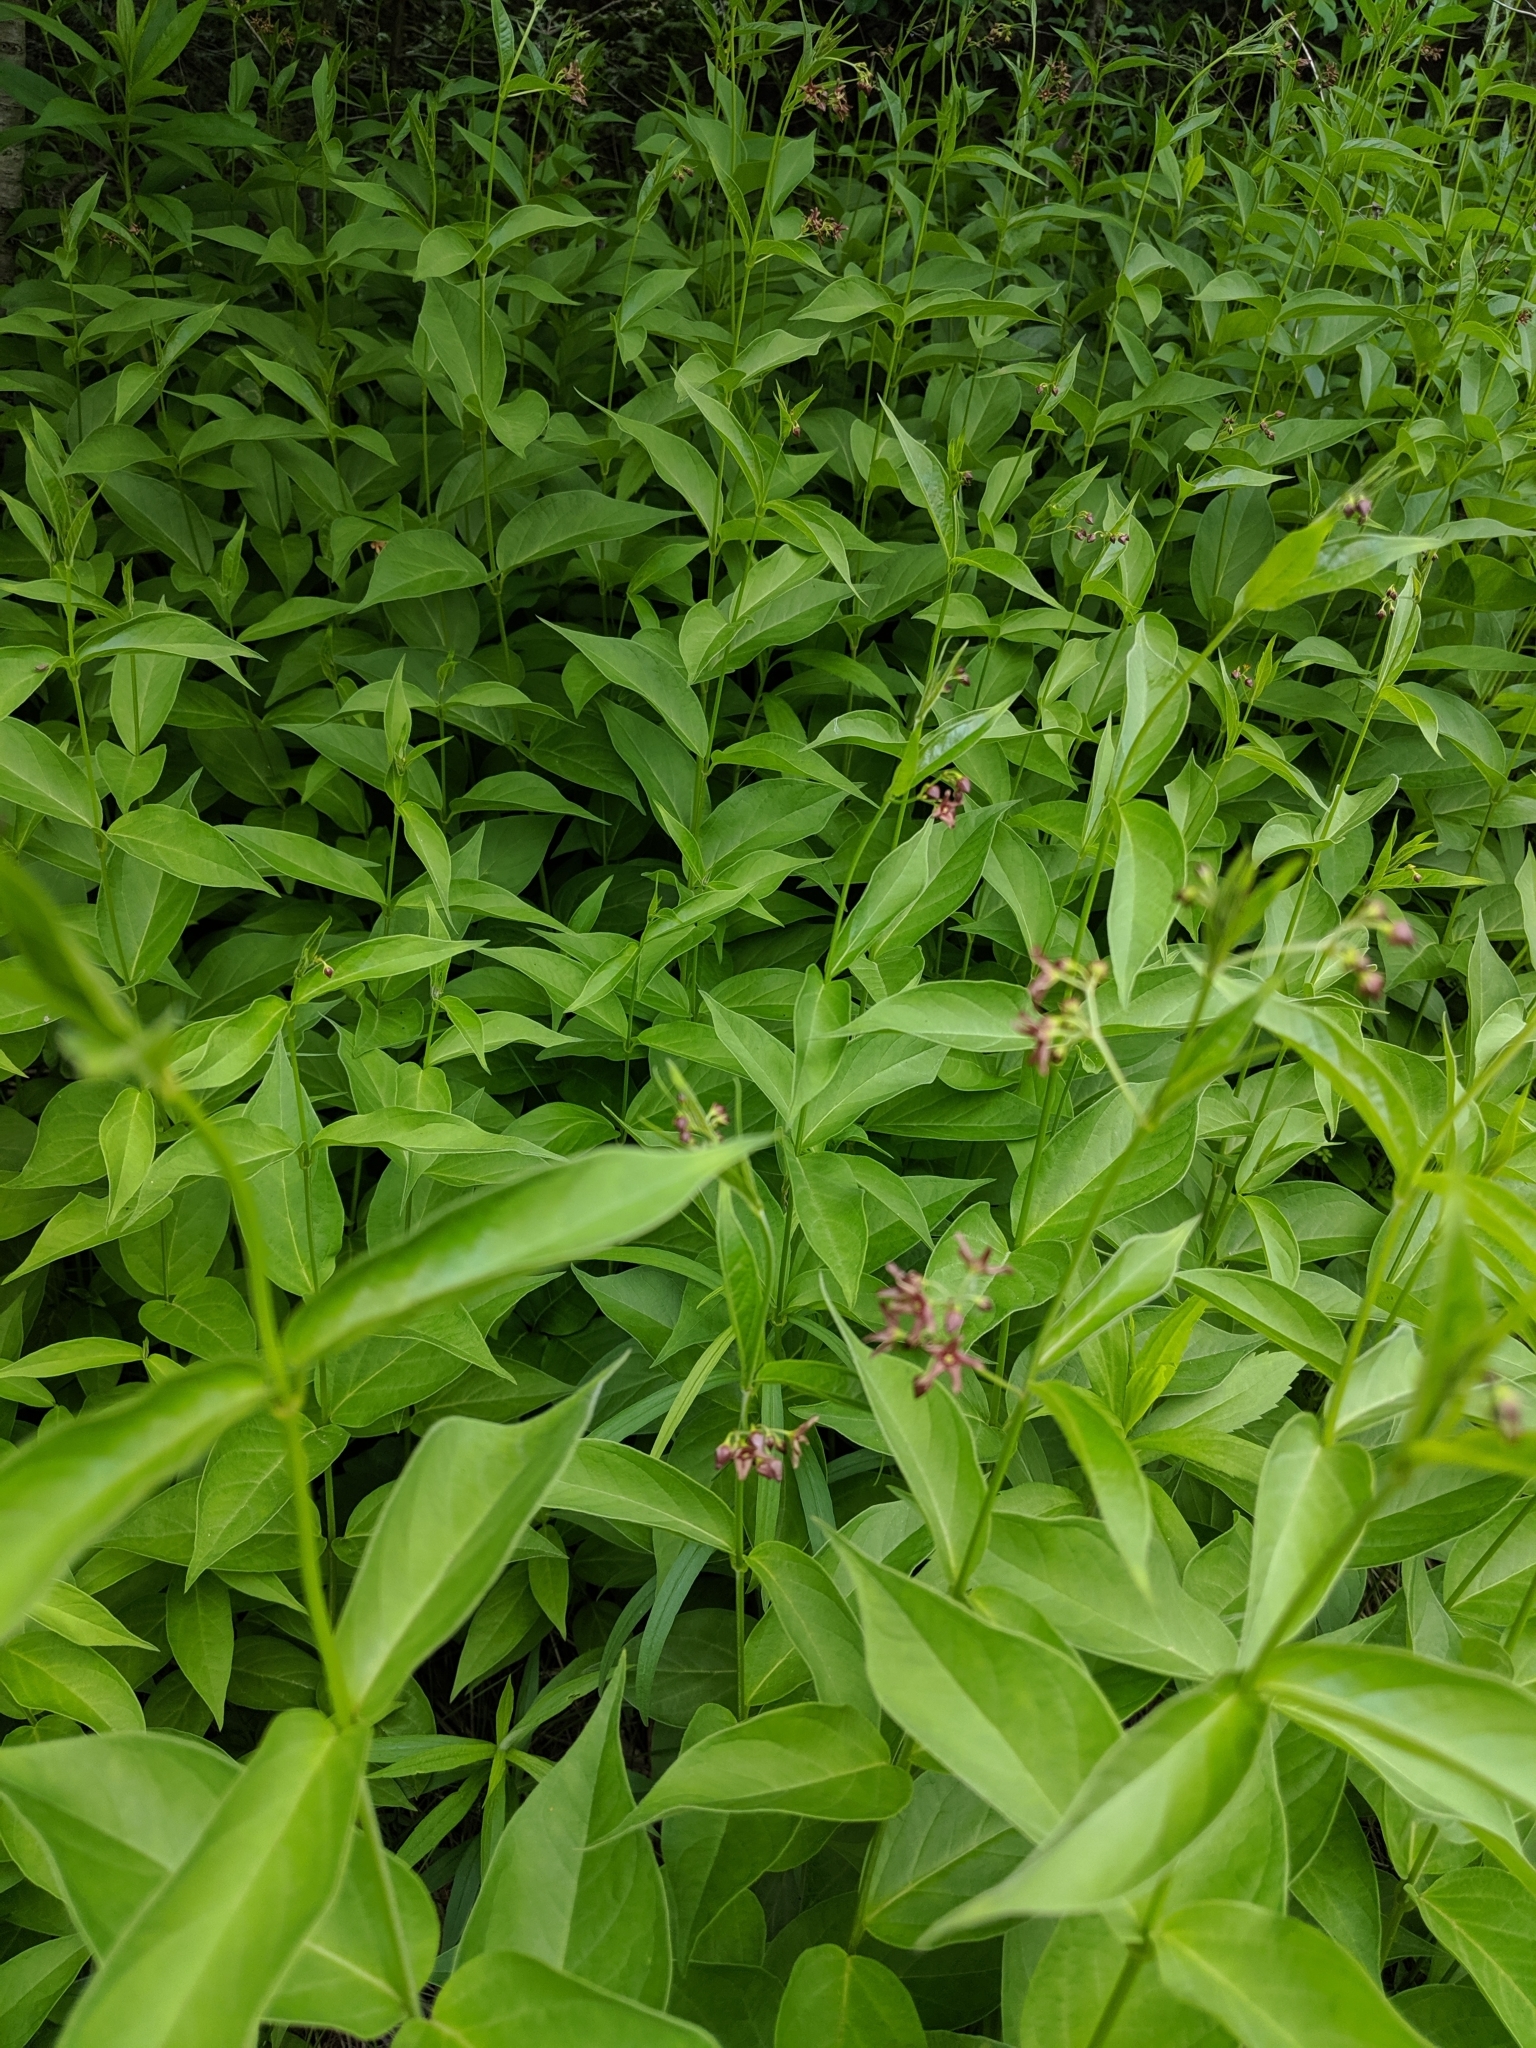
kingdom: Plantae
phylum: Tracheophyta
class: Magnoliopsida
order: Gentianales
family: Apocynaceae
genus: Vincetoxicum
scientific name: Vincetoxicum rossicum
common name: Dog-strangling vine
